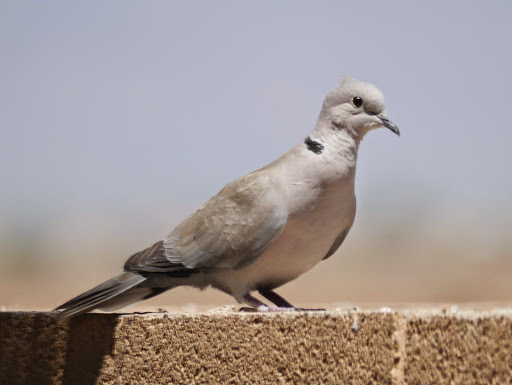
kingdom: Animalia
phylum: Chordata
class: Aves
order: Columbiformes
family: Columbidae
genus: Streptopelia
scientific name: Streptopelia decaocto
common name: Eurasian collared dove
